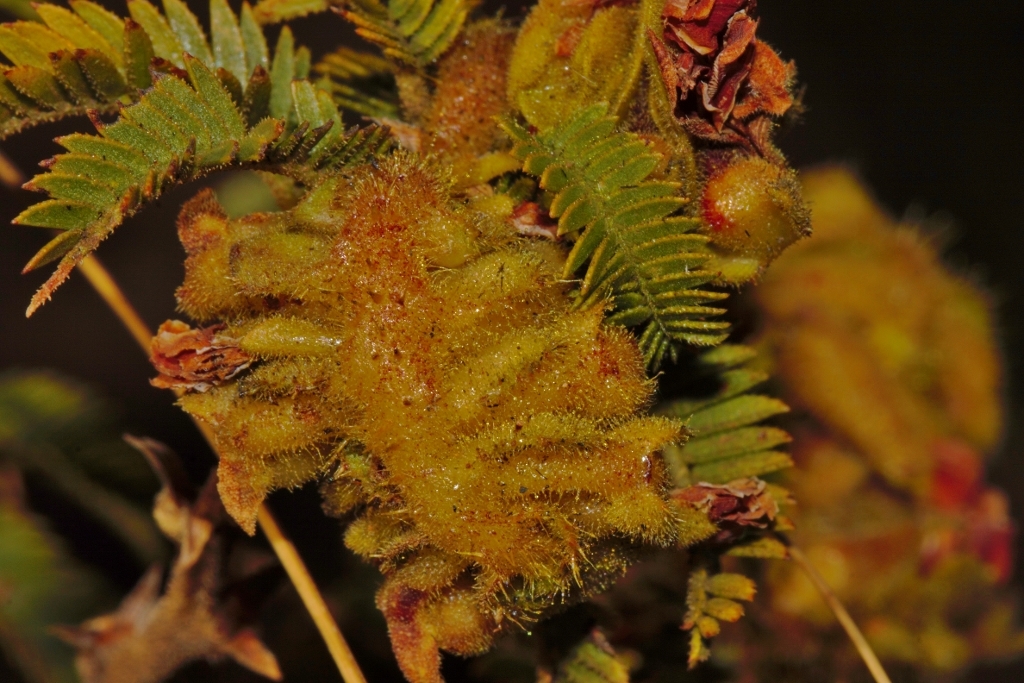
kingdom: Plantae
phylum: Tracheophyta
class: Magnoliopsida
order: Fabales
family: Fabaceae
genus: Kotschya
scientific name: Kotschya thymodora
